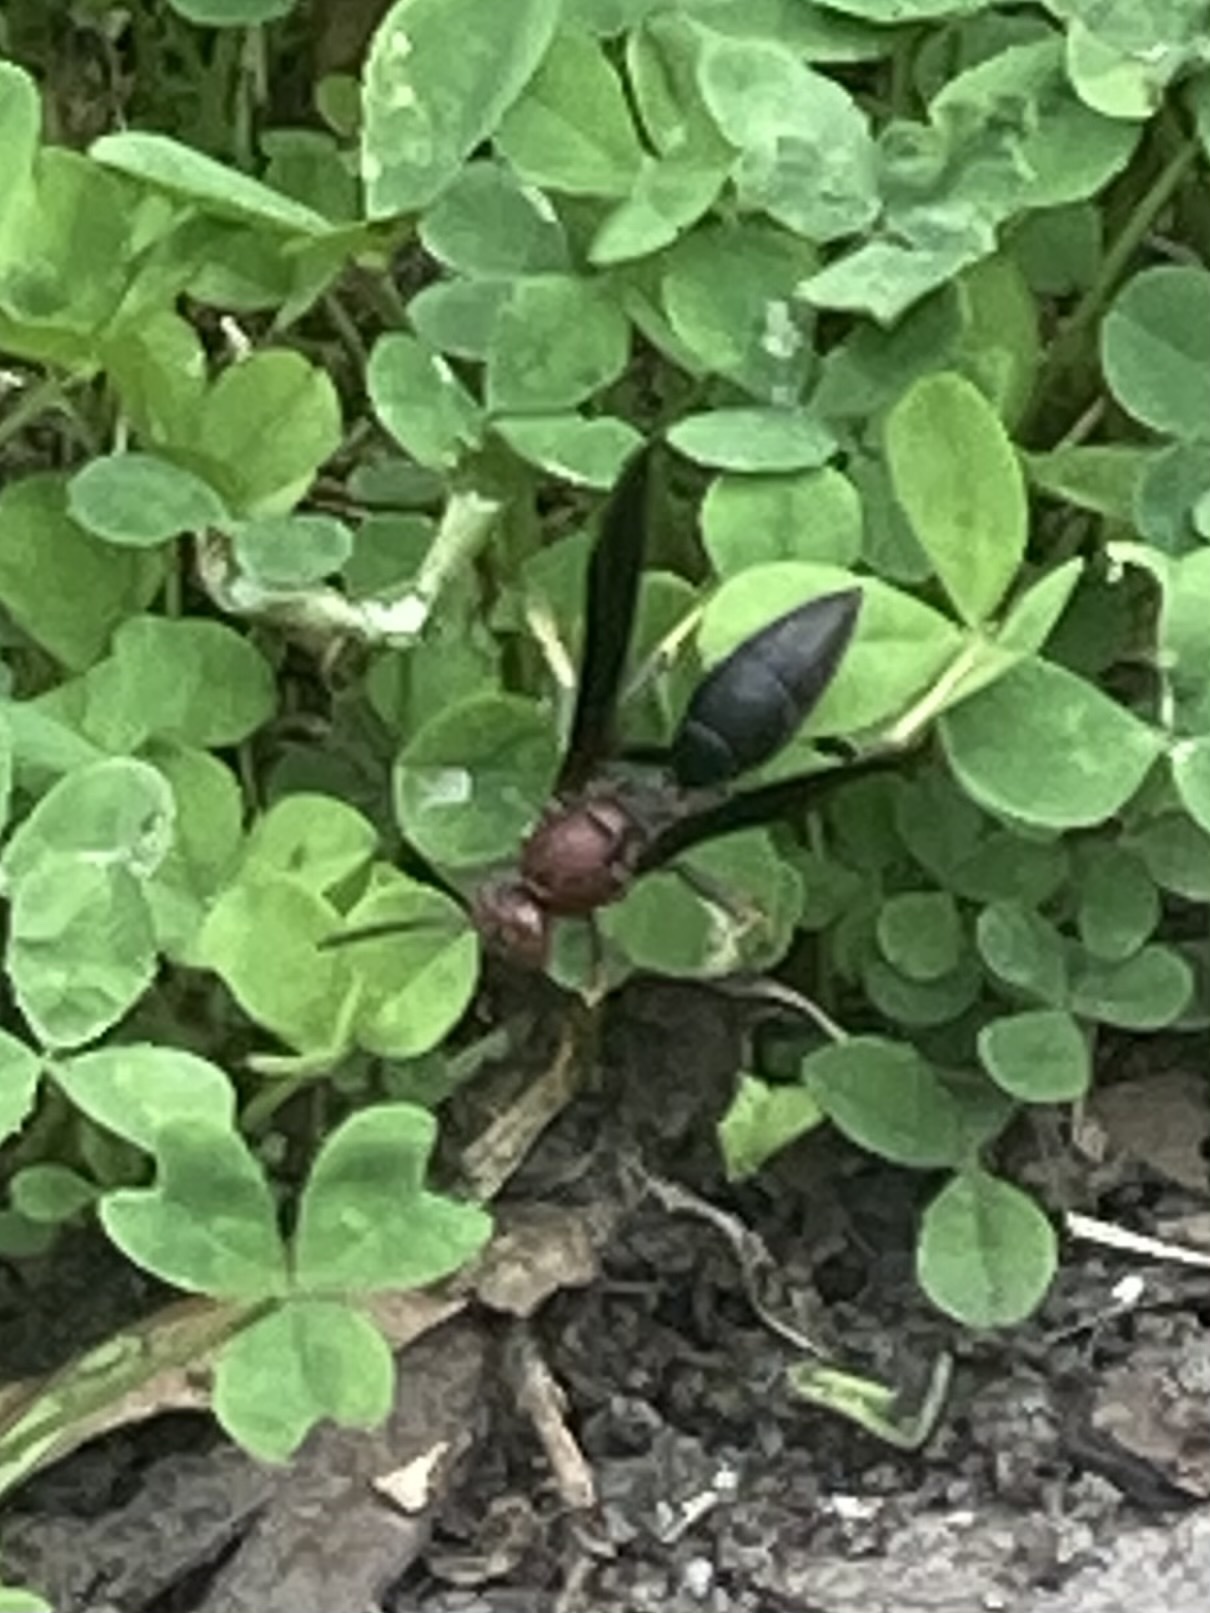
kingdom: Animalia
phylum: Arthropoda
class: Insecta
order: Hymenoptera
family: Eumenidae
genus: Polistes
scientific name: Polistes metricus
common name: Metric paper wasp
